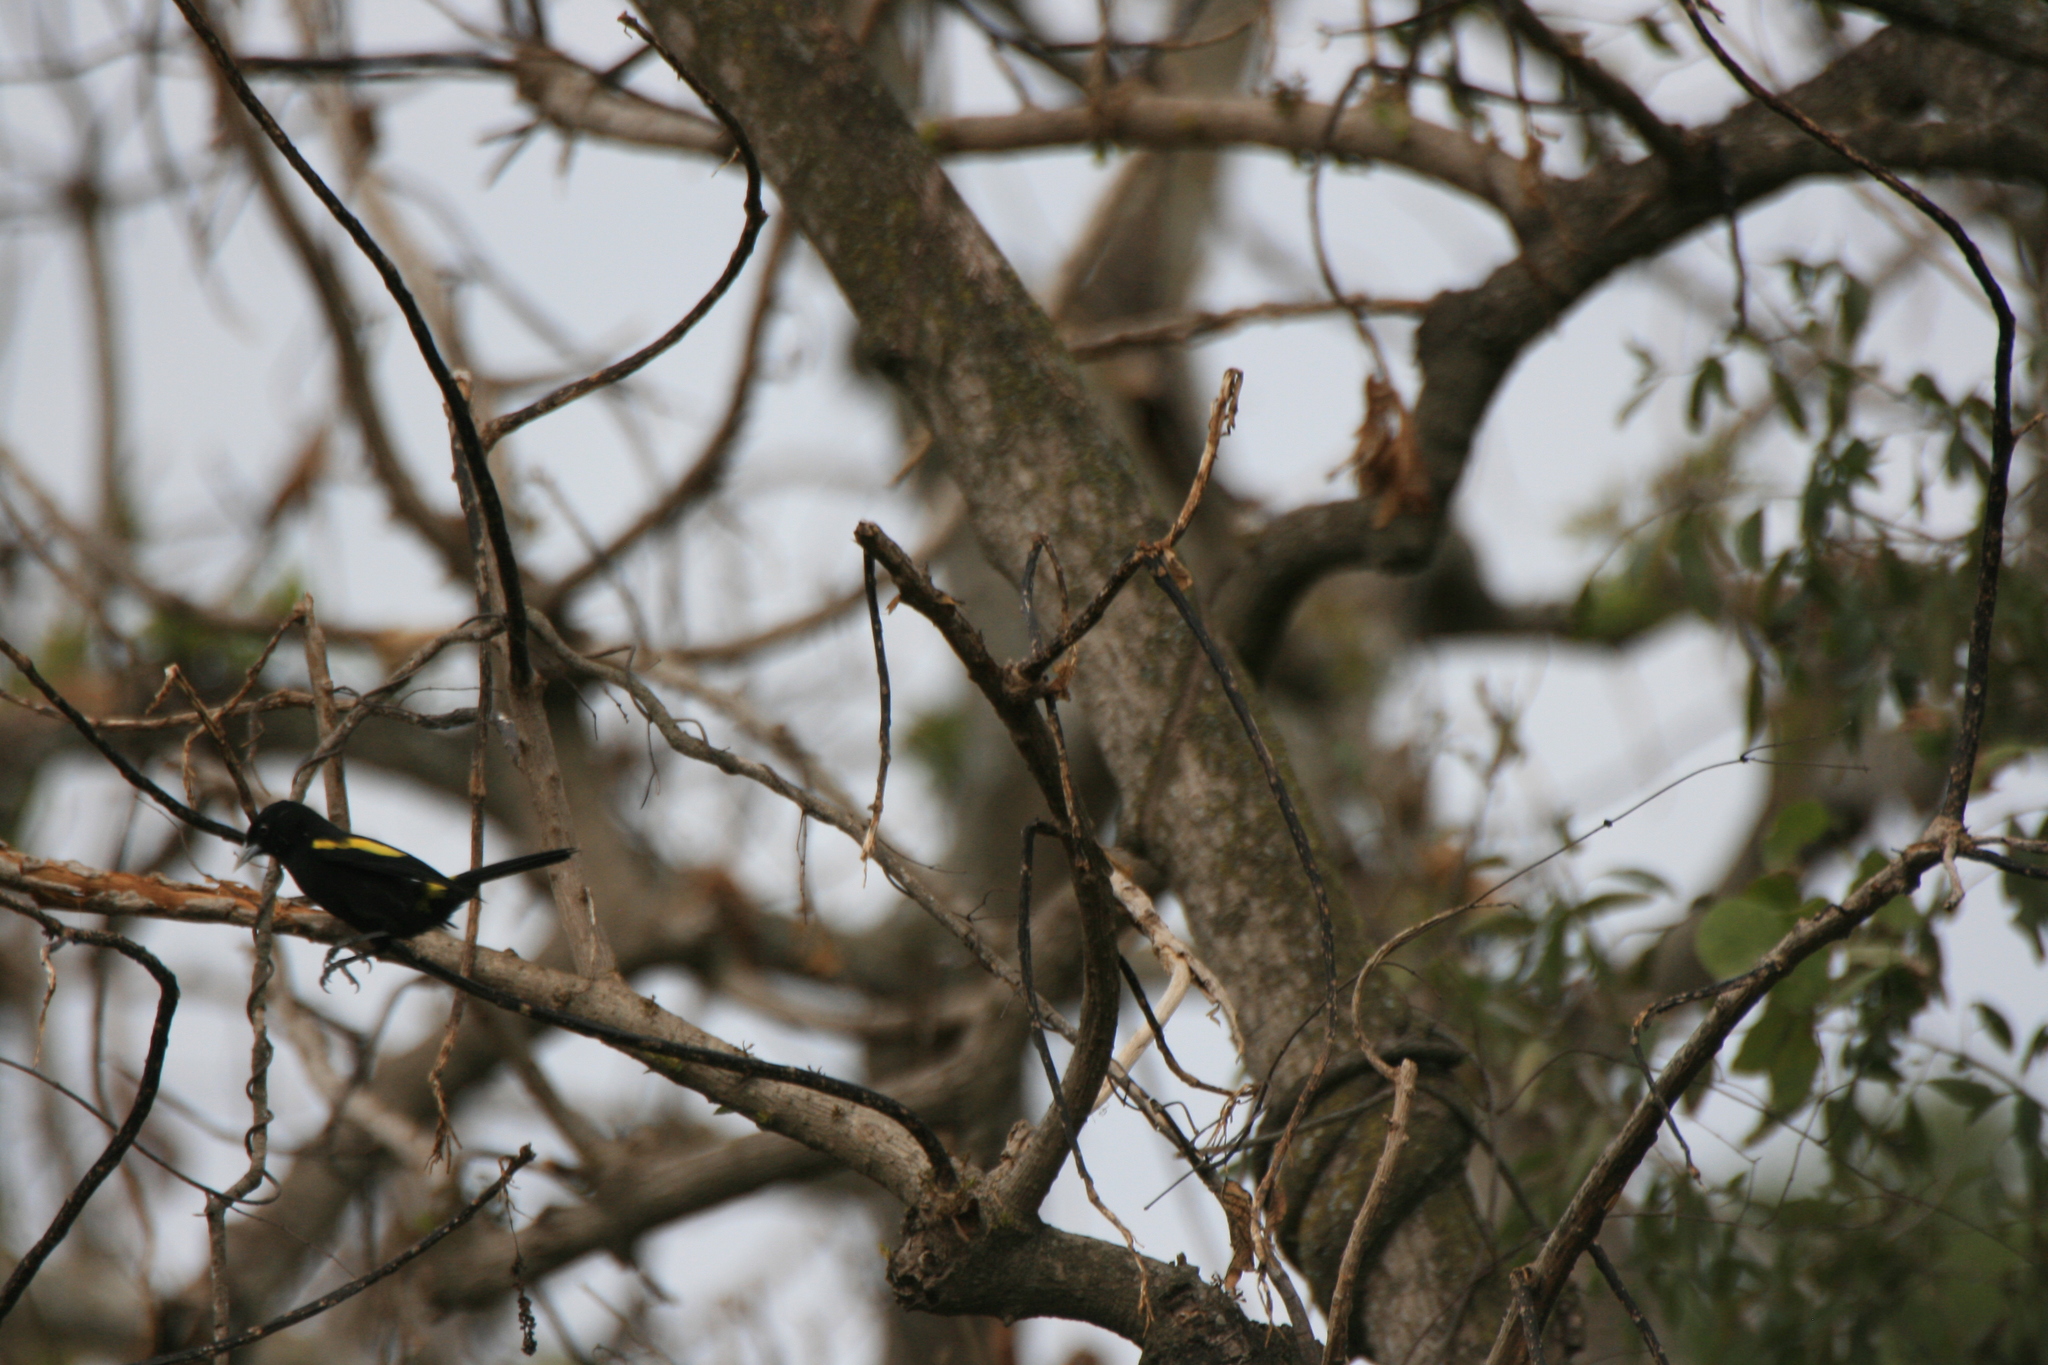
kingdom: Animalia
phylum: Chordata
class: Aves
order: Passeriformes
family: Icteridae
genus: Cacicus
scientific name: Cacicus chrysopterus
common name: Golden-winged cacique
